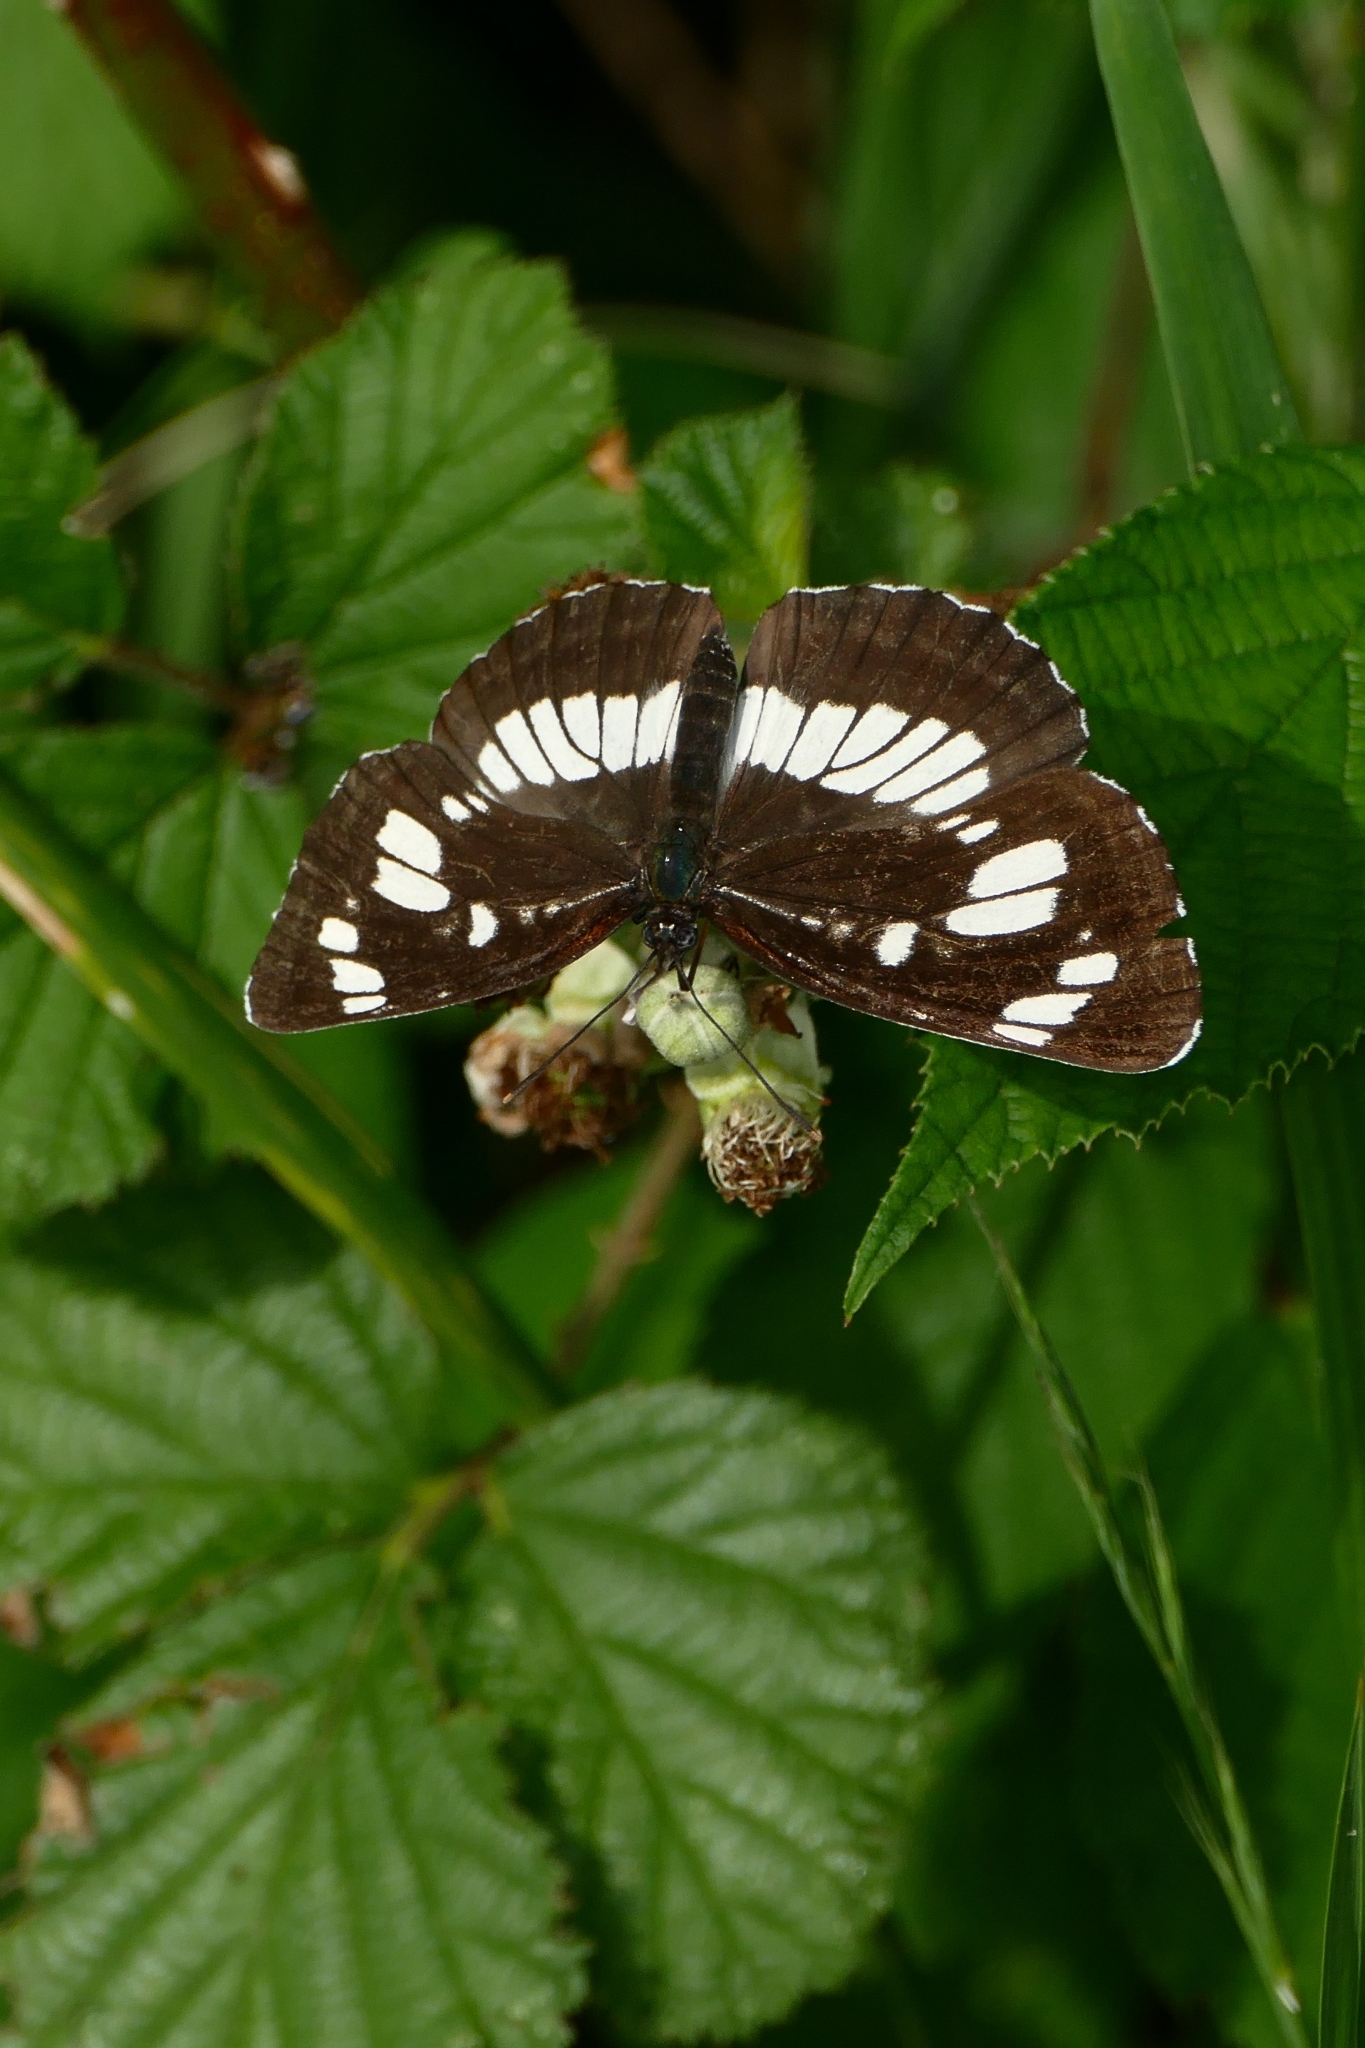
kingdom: Animalia
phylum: Arthropoda
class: Insecta
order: Lepidoptera
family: Nymphalidae
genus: Neptis
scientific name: Neptis rivularis
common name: Hungarian glider
